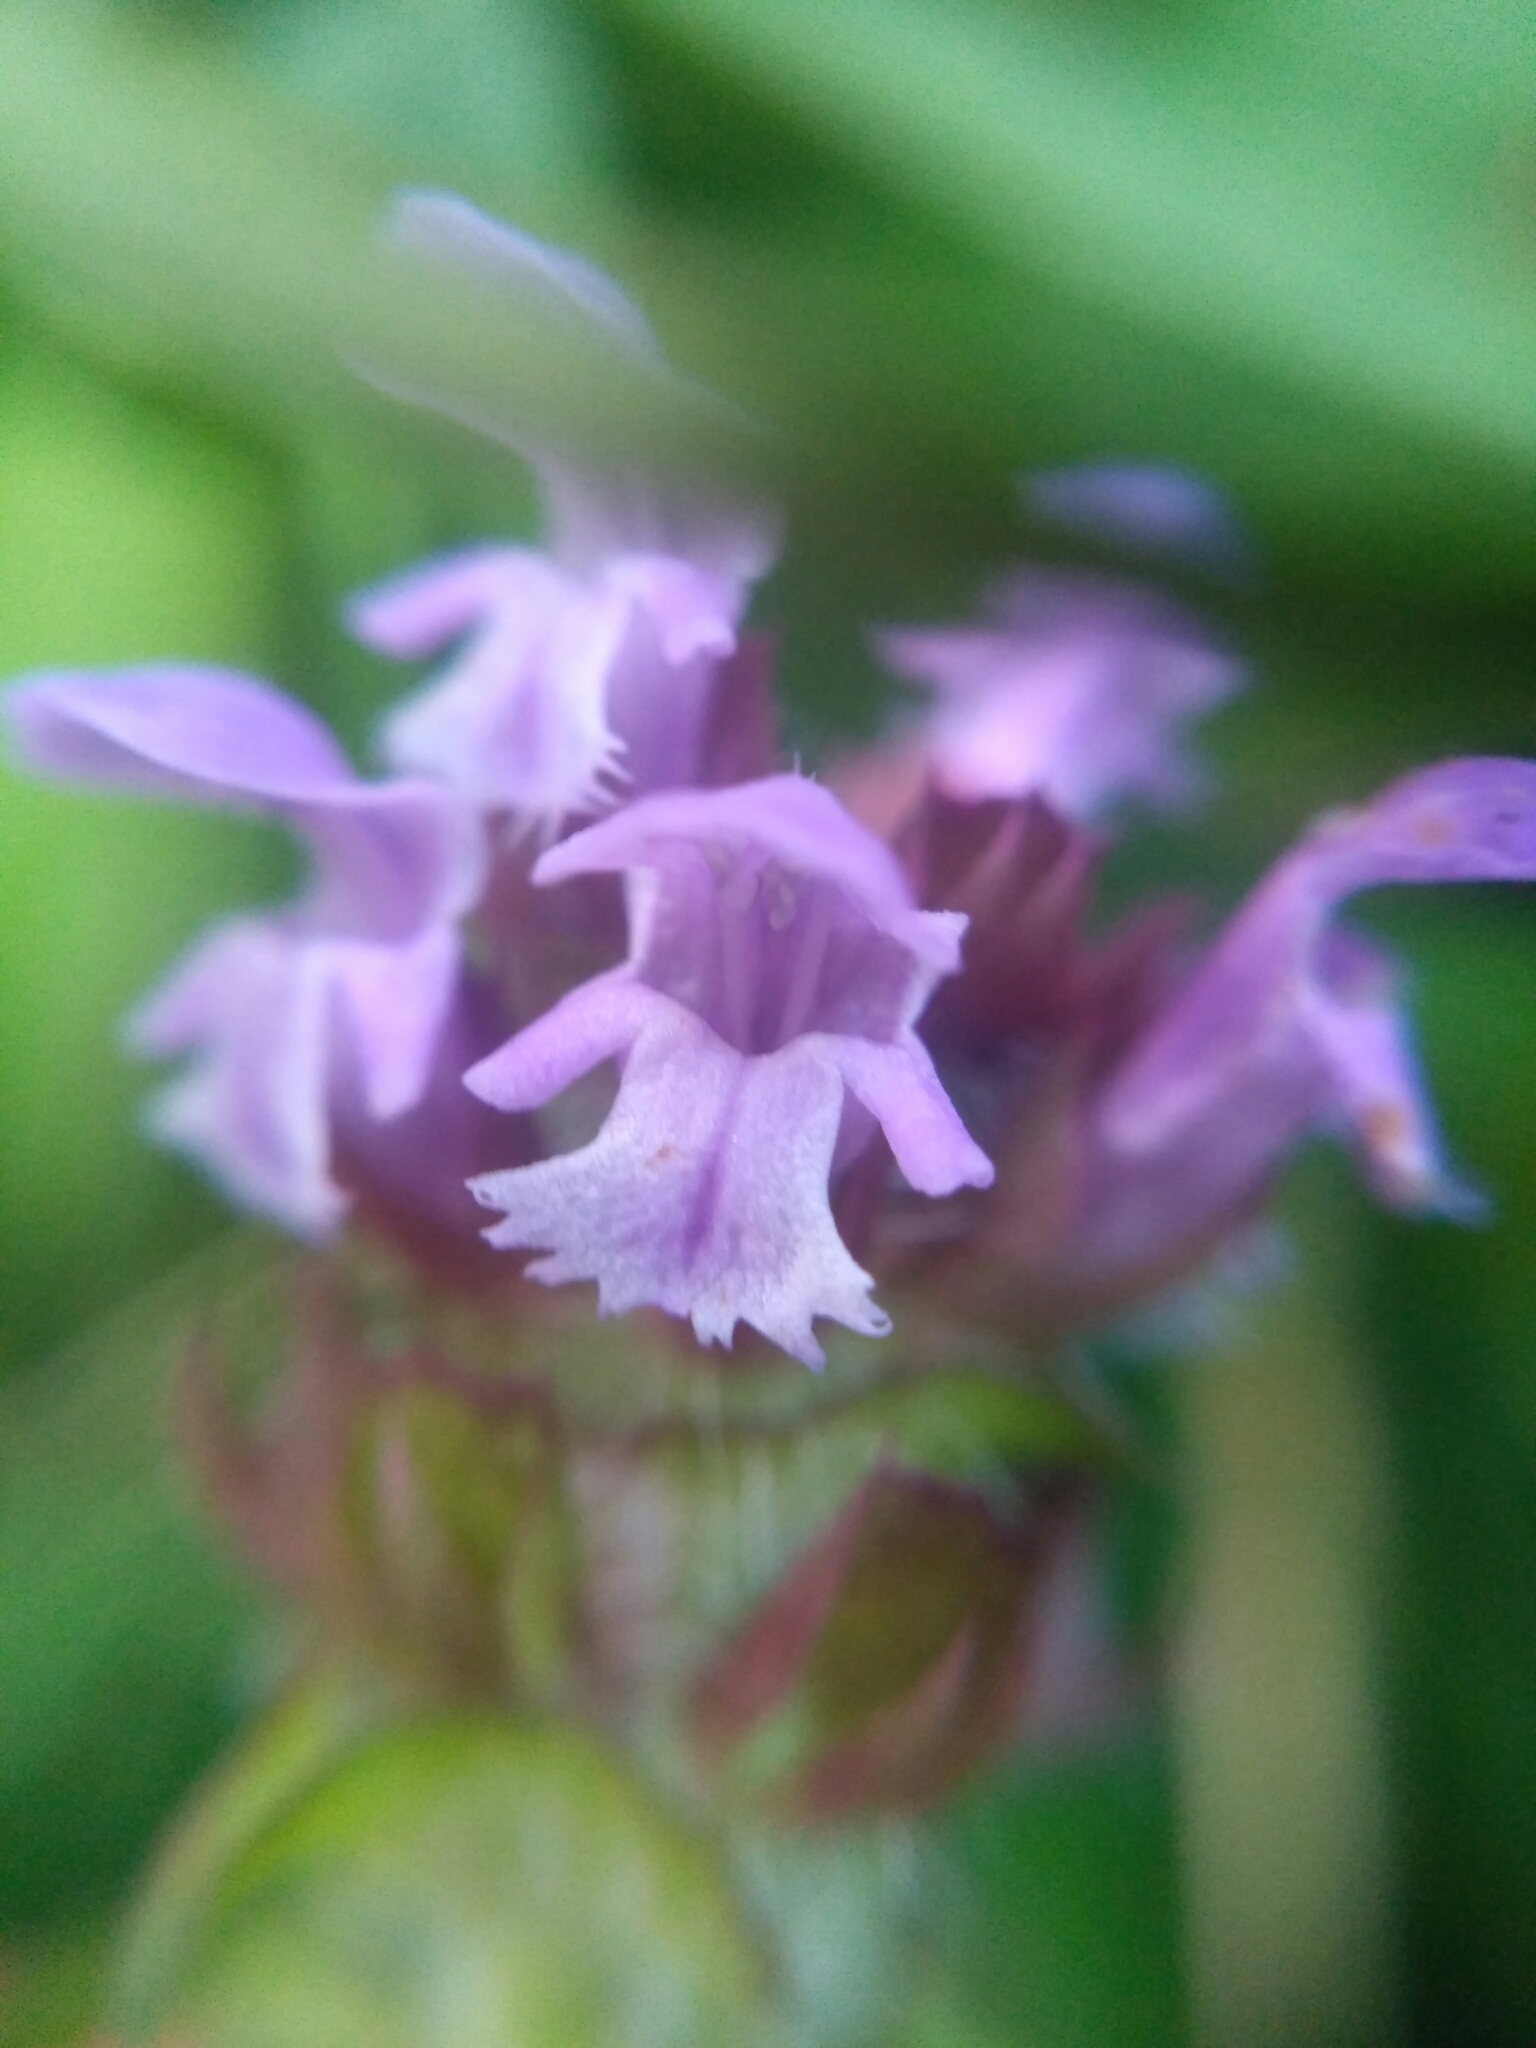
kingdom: Plantae
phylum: Tracheophyta
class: Magnoliopsida
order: Lamiales
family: Lamiaceae
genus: Prunella
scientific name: Prunella vulgaris
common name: Heal-all
